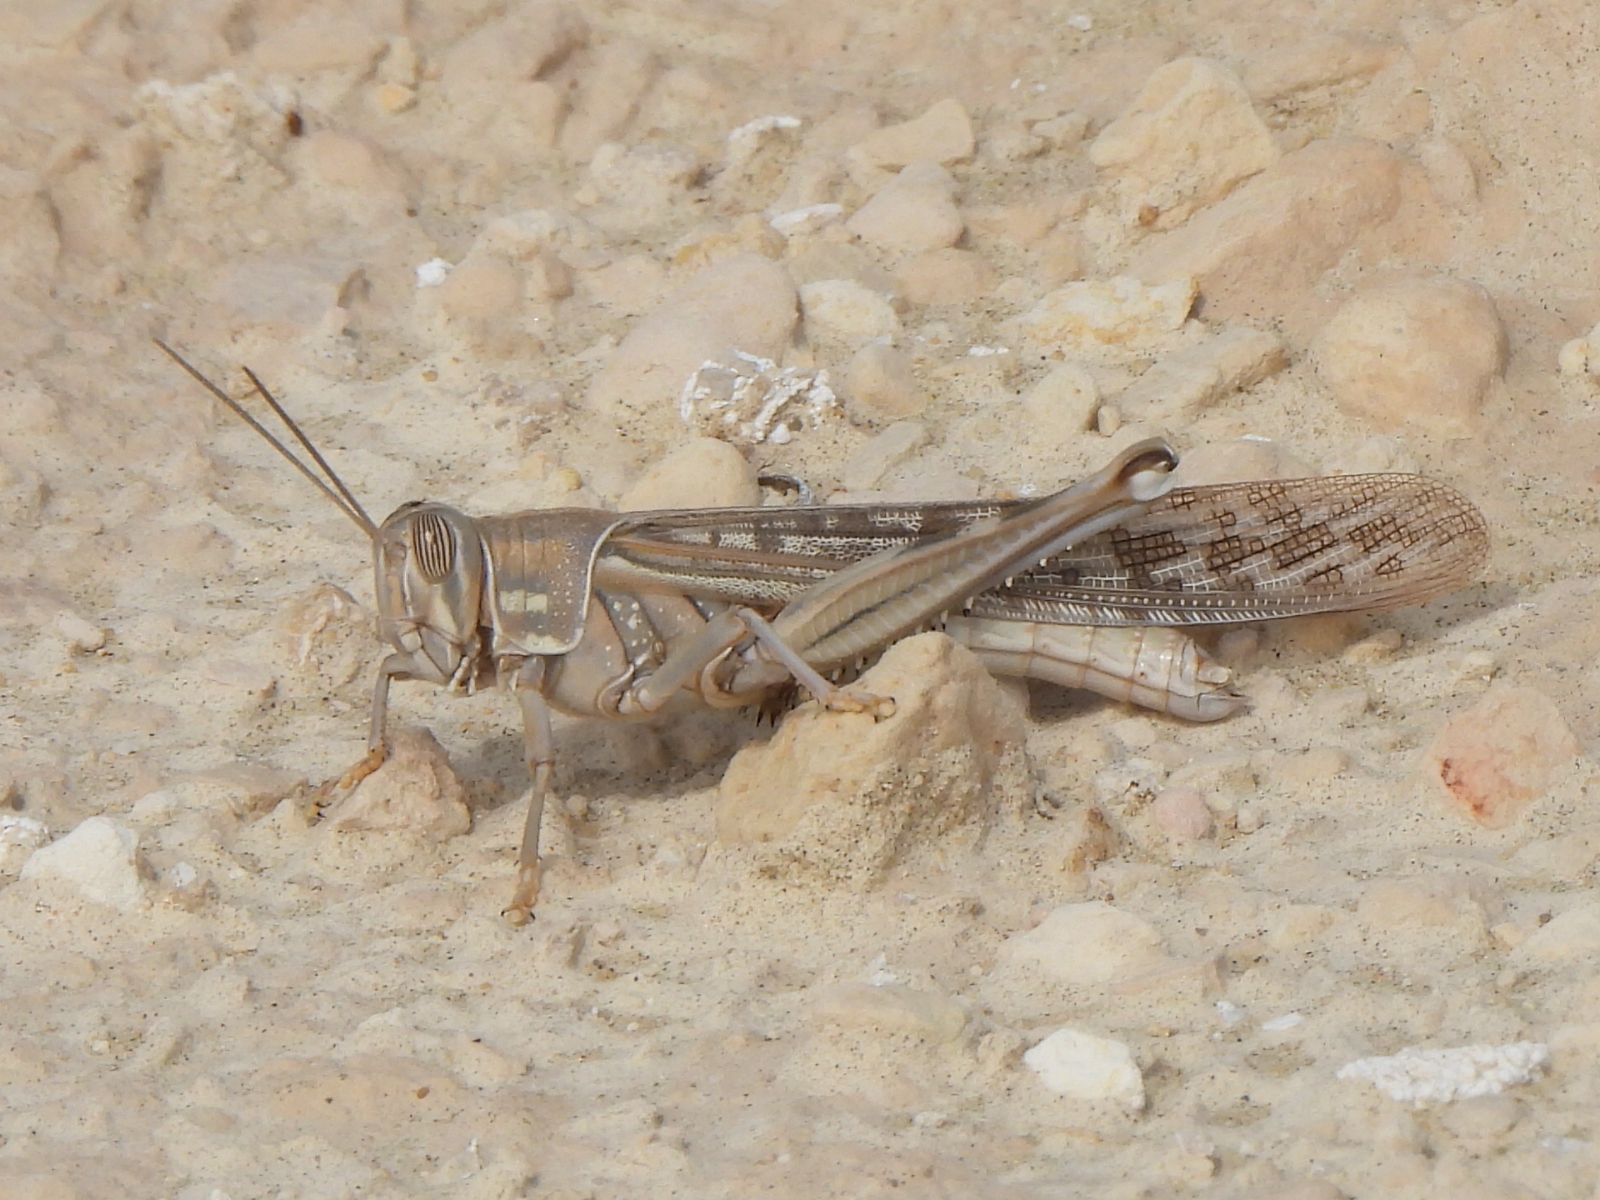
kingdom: Animalia
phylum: Arthropoda
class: Insecta
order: Orthoptera
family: Acrididae
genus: Schistocerca
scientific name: Schistocerca gregaria
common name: Desert locust
